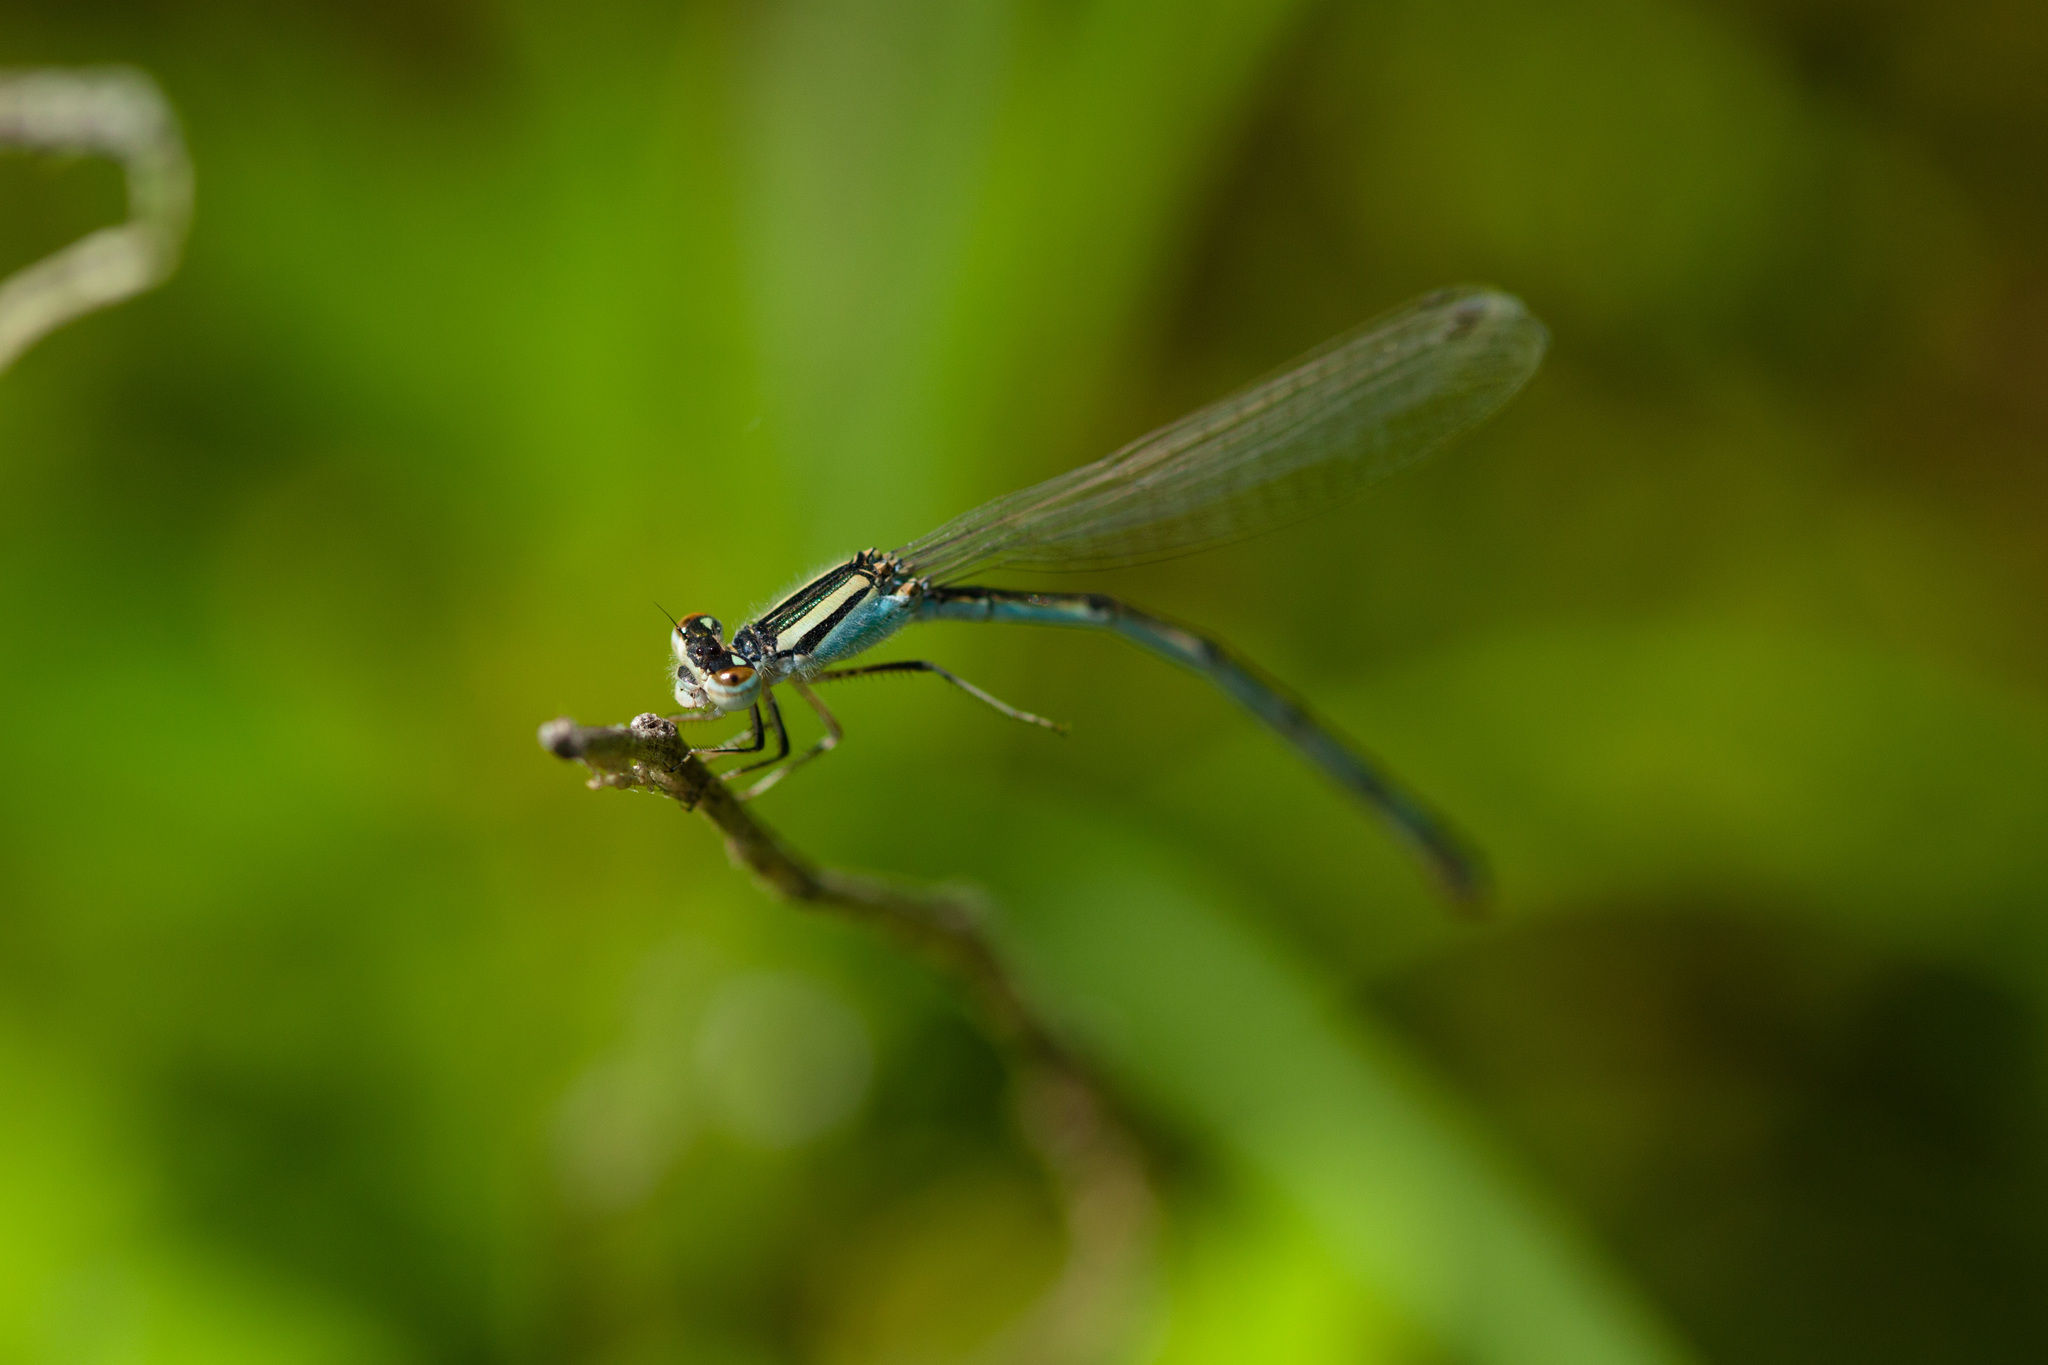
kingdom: Animalia
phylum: Arthropoda
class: Insecta
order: Odonata
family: Coenagrionidae
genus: Enallagma
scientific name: Enallagma civile
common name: Damselfly
